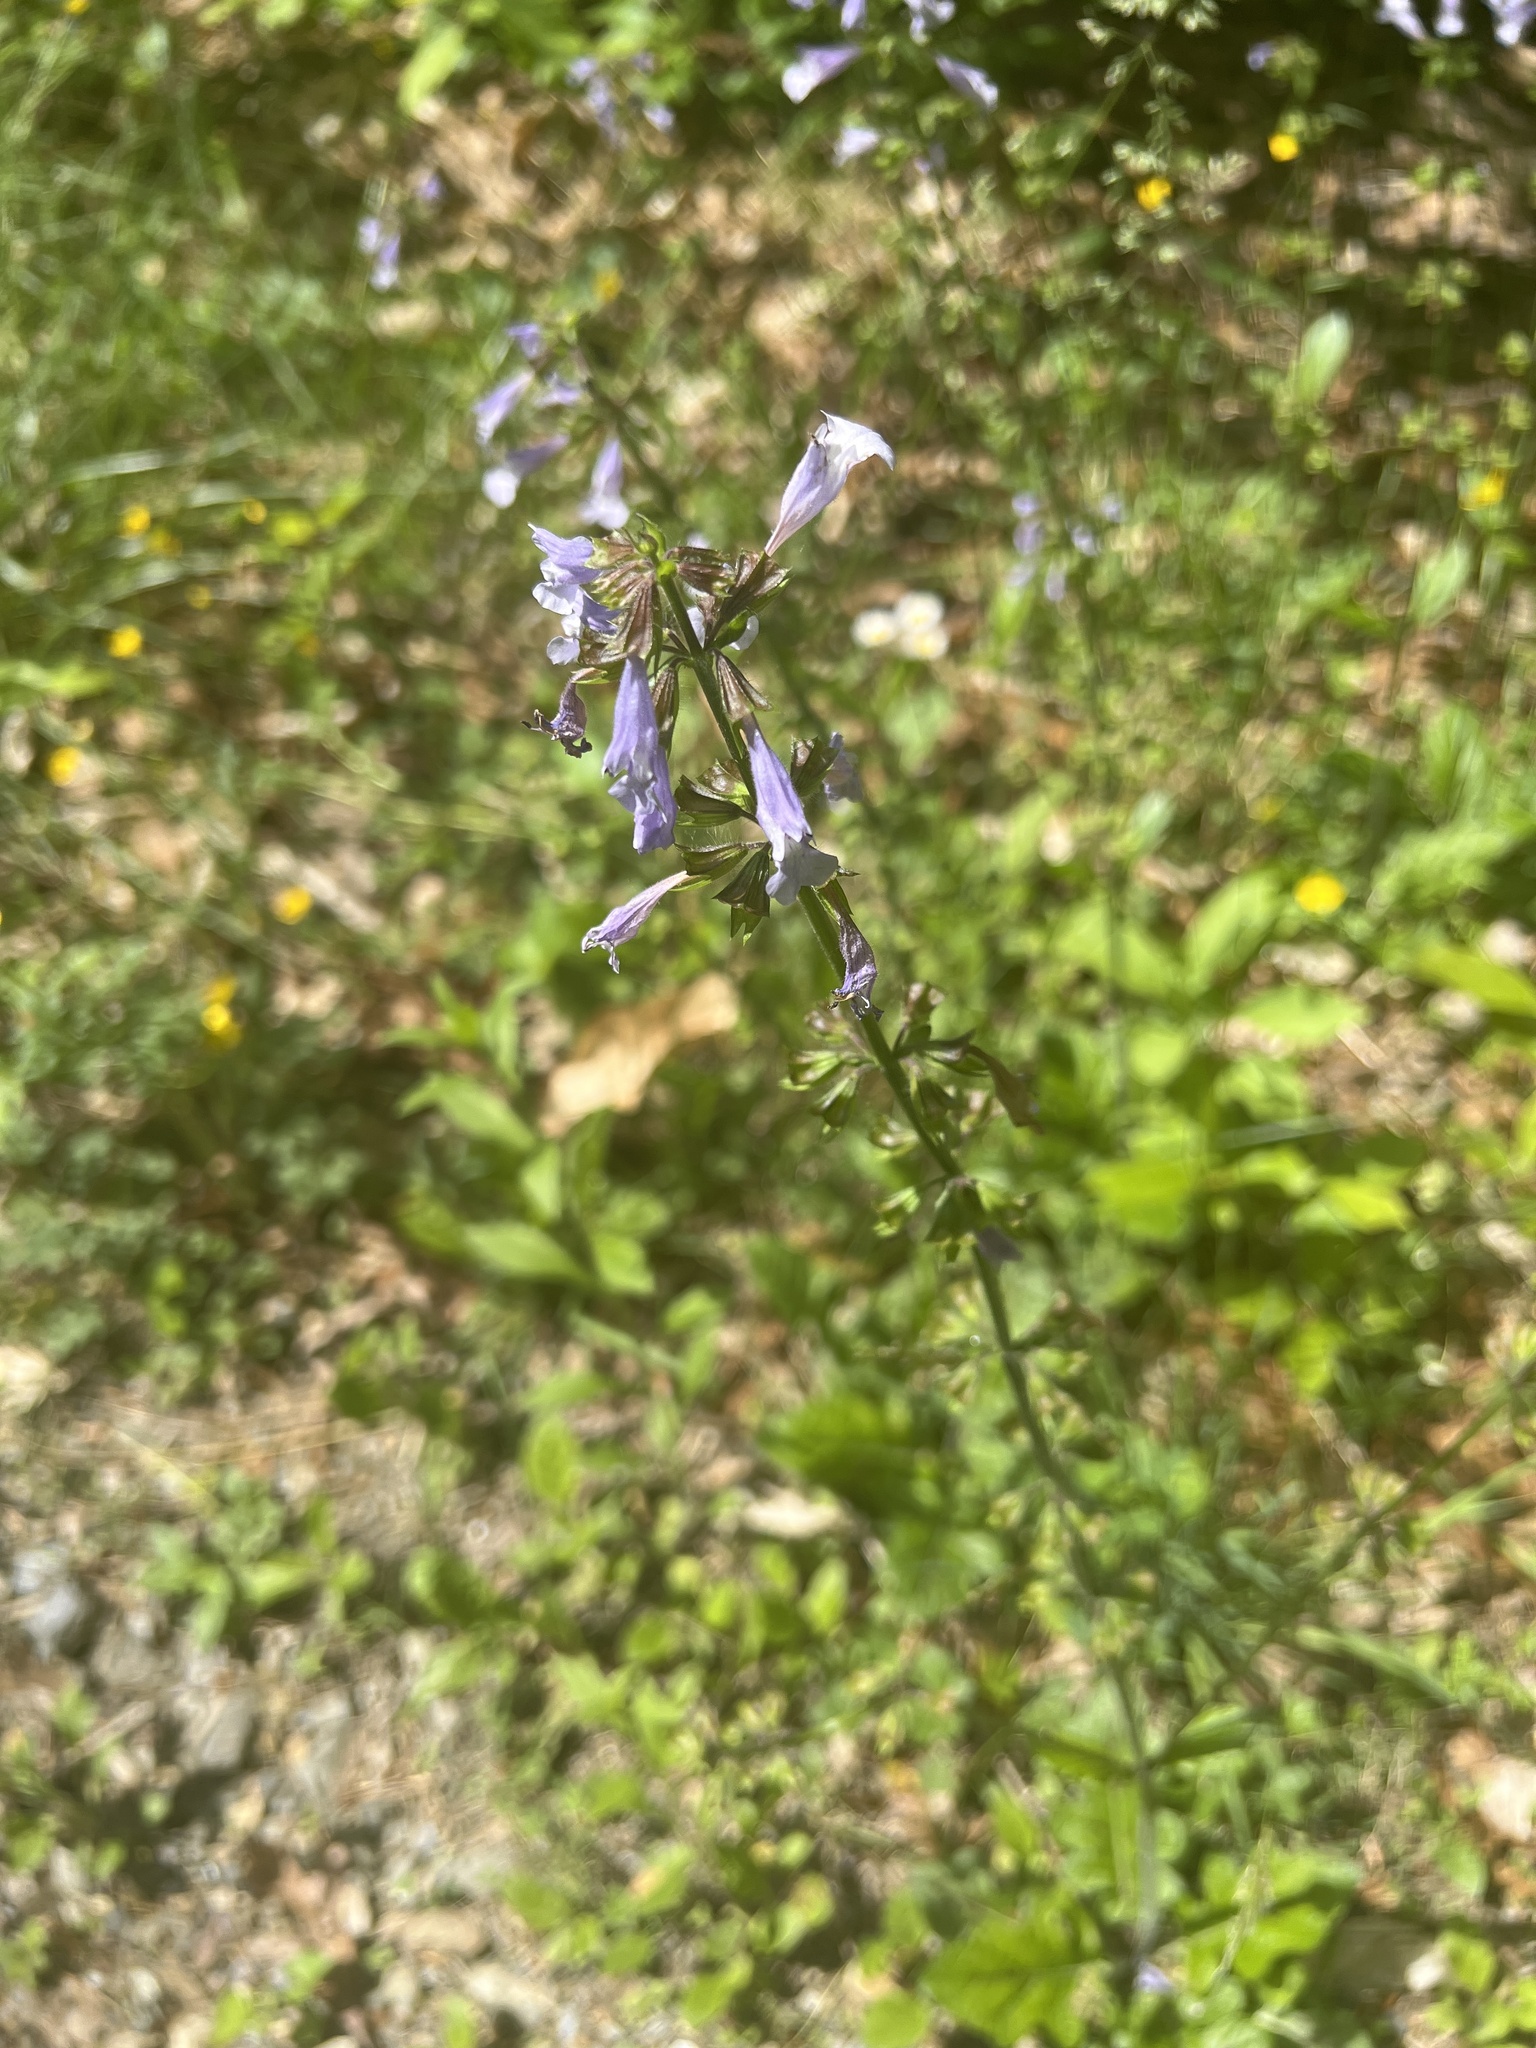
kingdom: Plantae
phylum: Tracheophyta
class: Magnoliopsida
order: Lamiales
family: Lamiaceae
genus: Salvia
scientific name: Salvia lyrata
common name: Cancerweed
